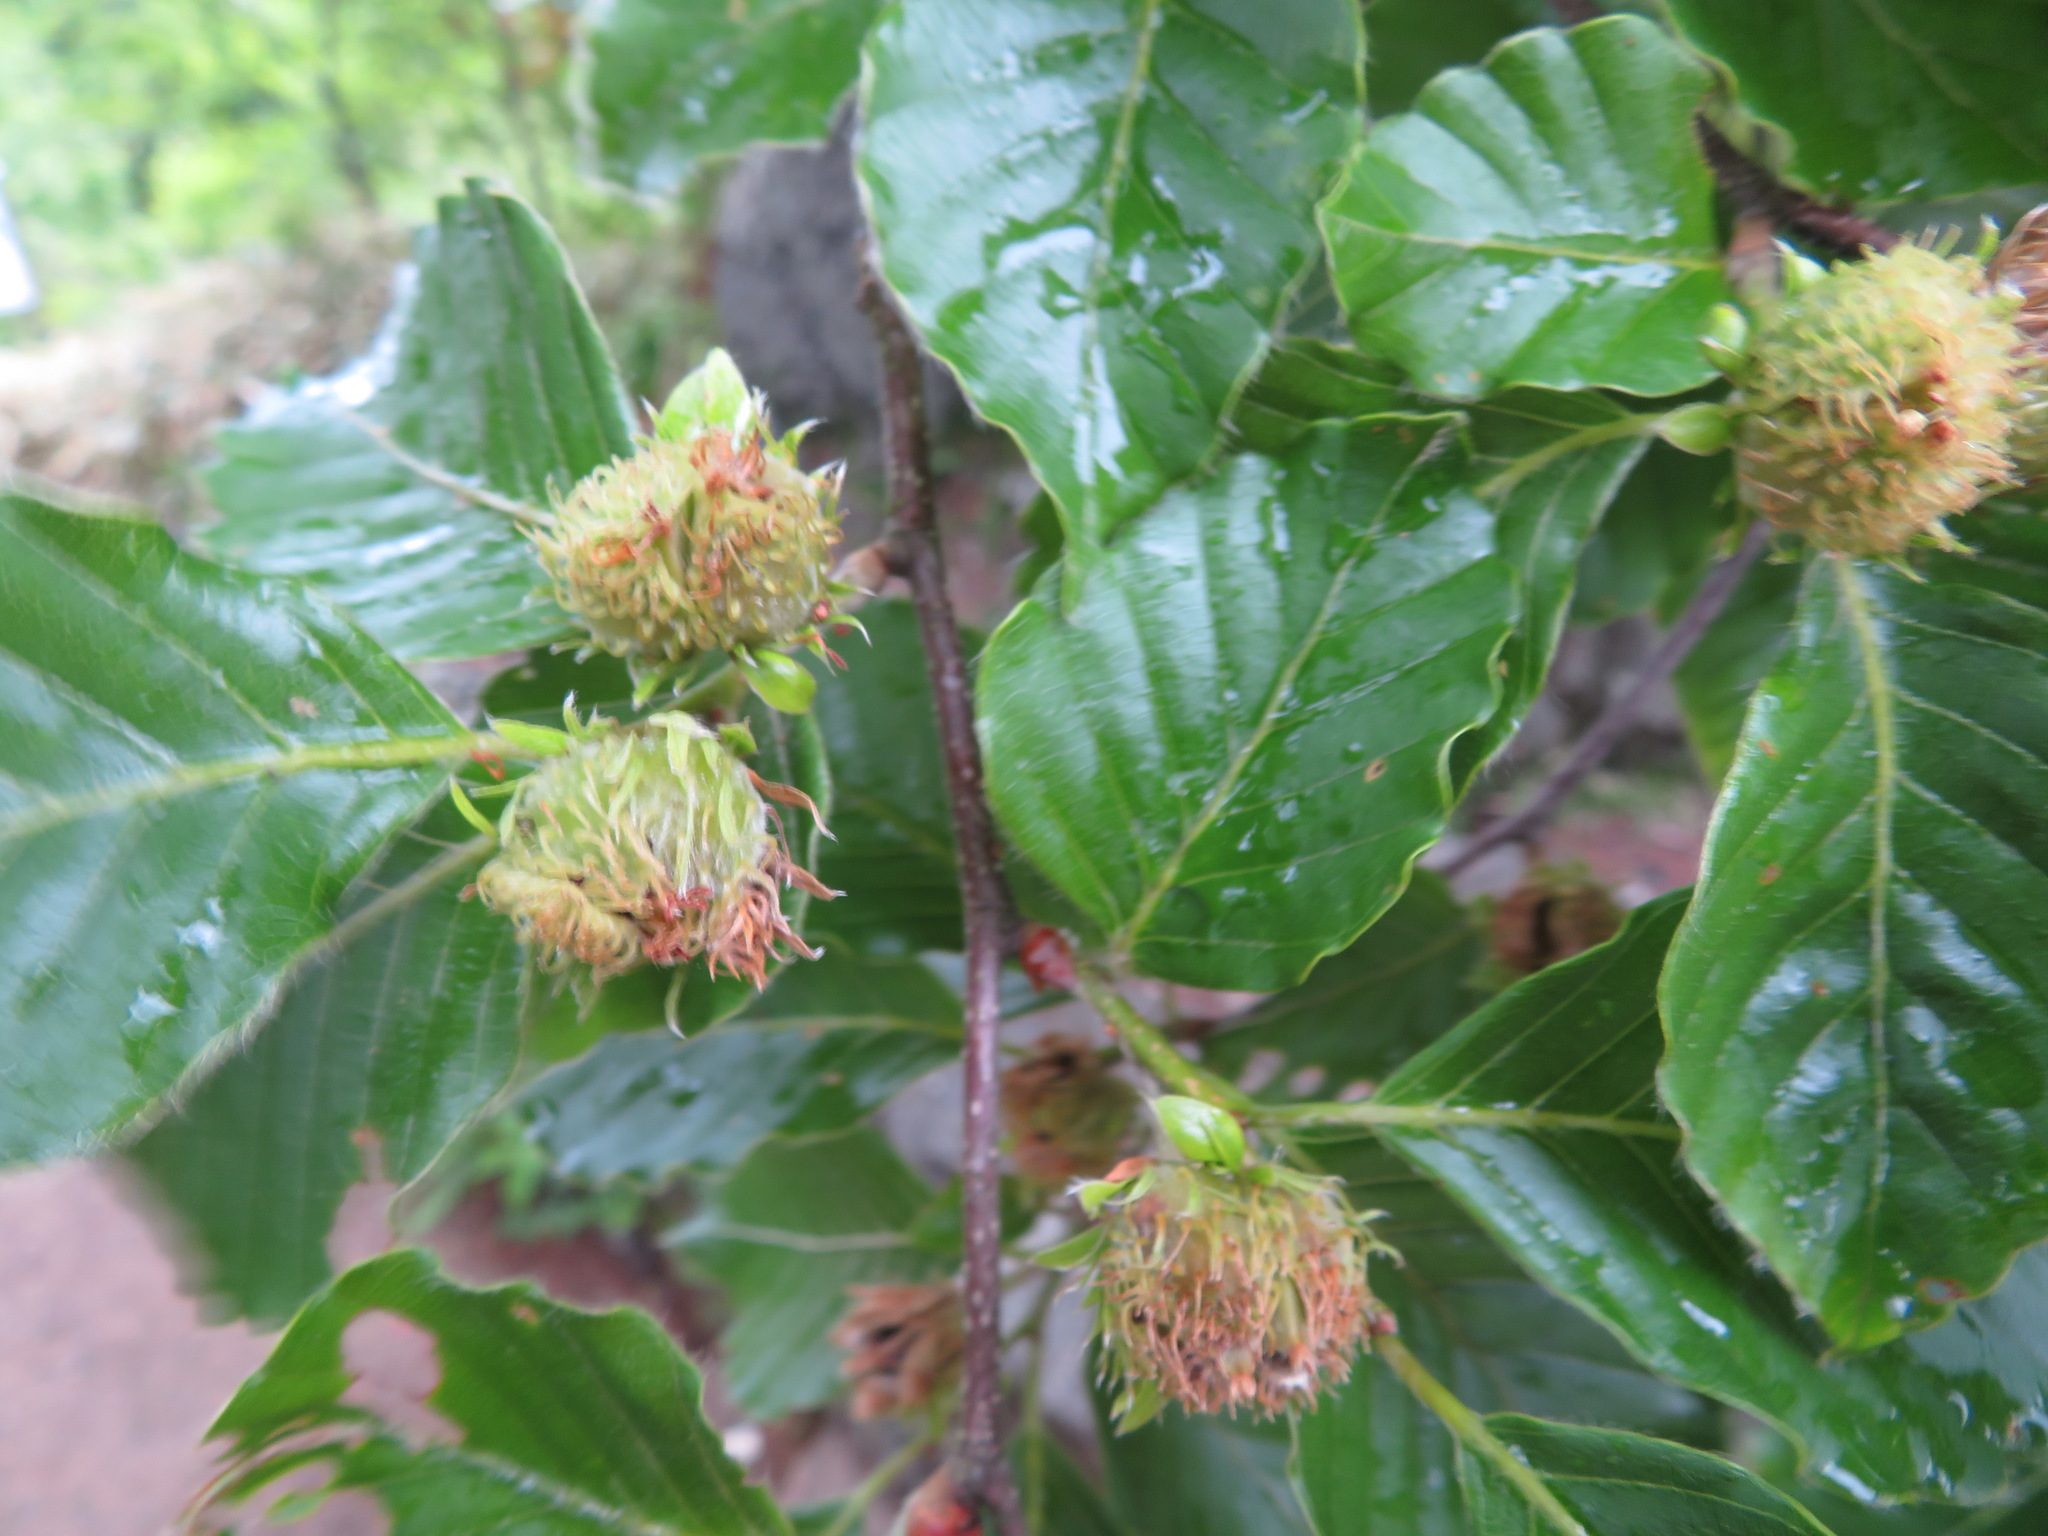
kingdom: Plantae
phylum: Tracheophyta
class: Magnoliopsida
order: Fagales
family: Fagaceae
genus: Fagus
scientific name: Fagus crenata
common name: Japanese beech
